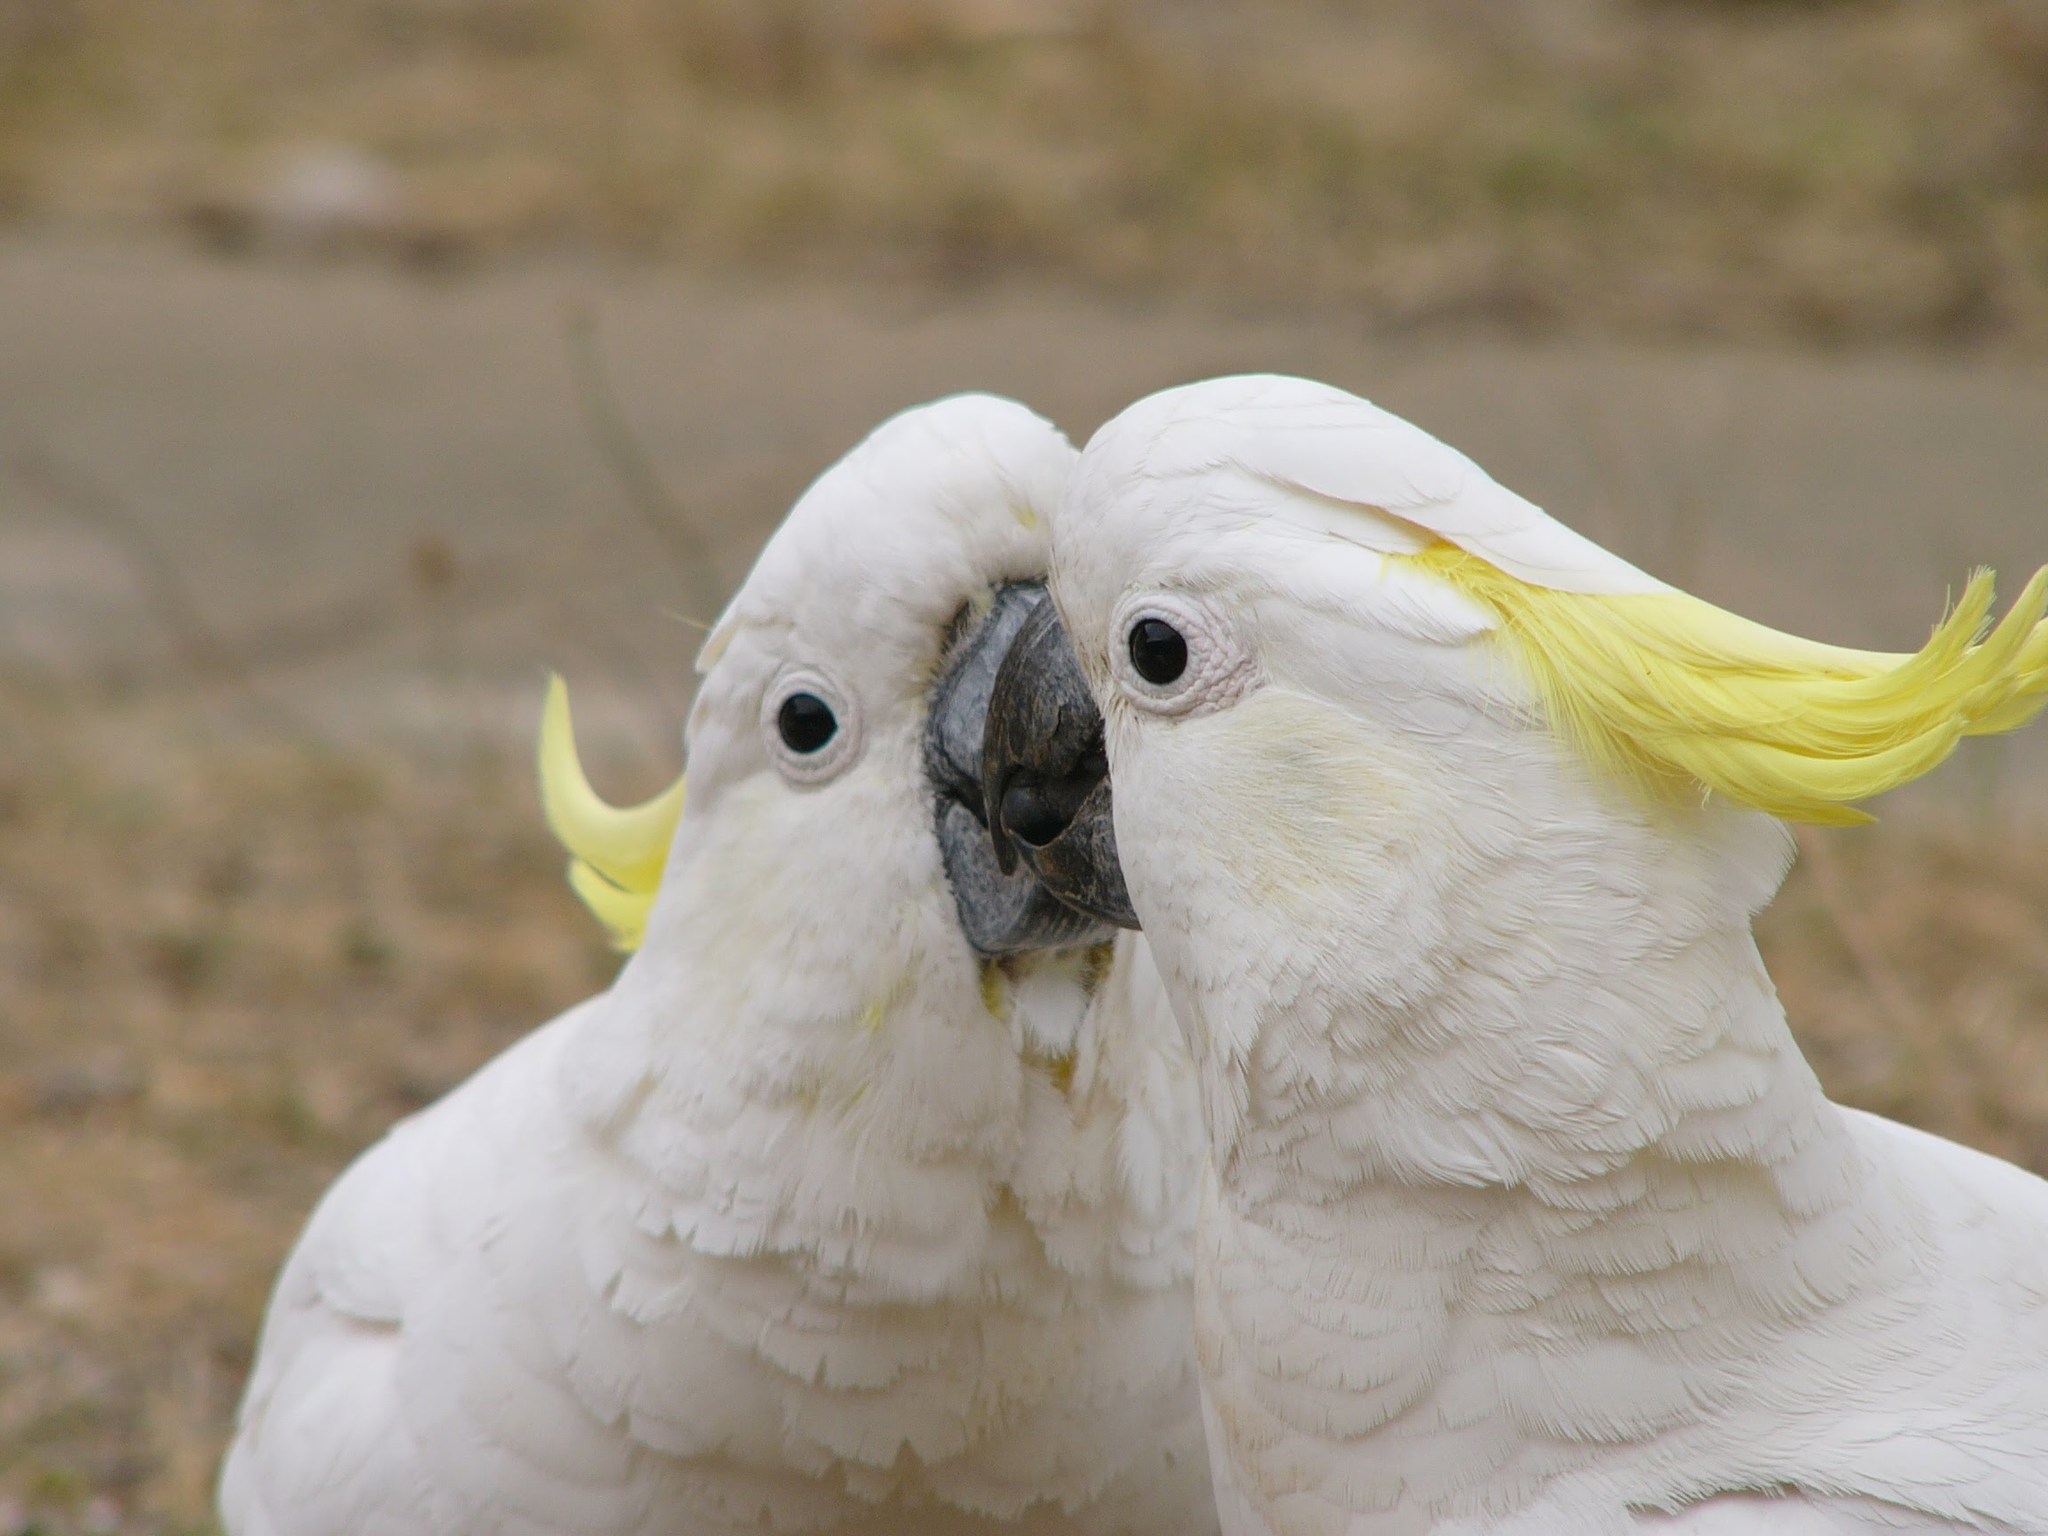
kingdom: Animalia
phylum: Chordata
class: Aves
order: Psittaciformes
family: Psittacidae
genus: Cacatua
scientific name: Cacatua galerita
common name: Sulphur-crested cockatoo
